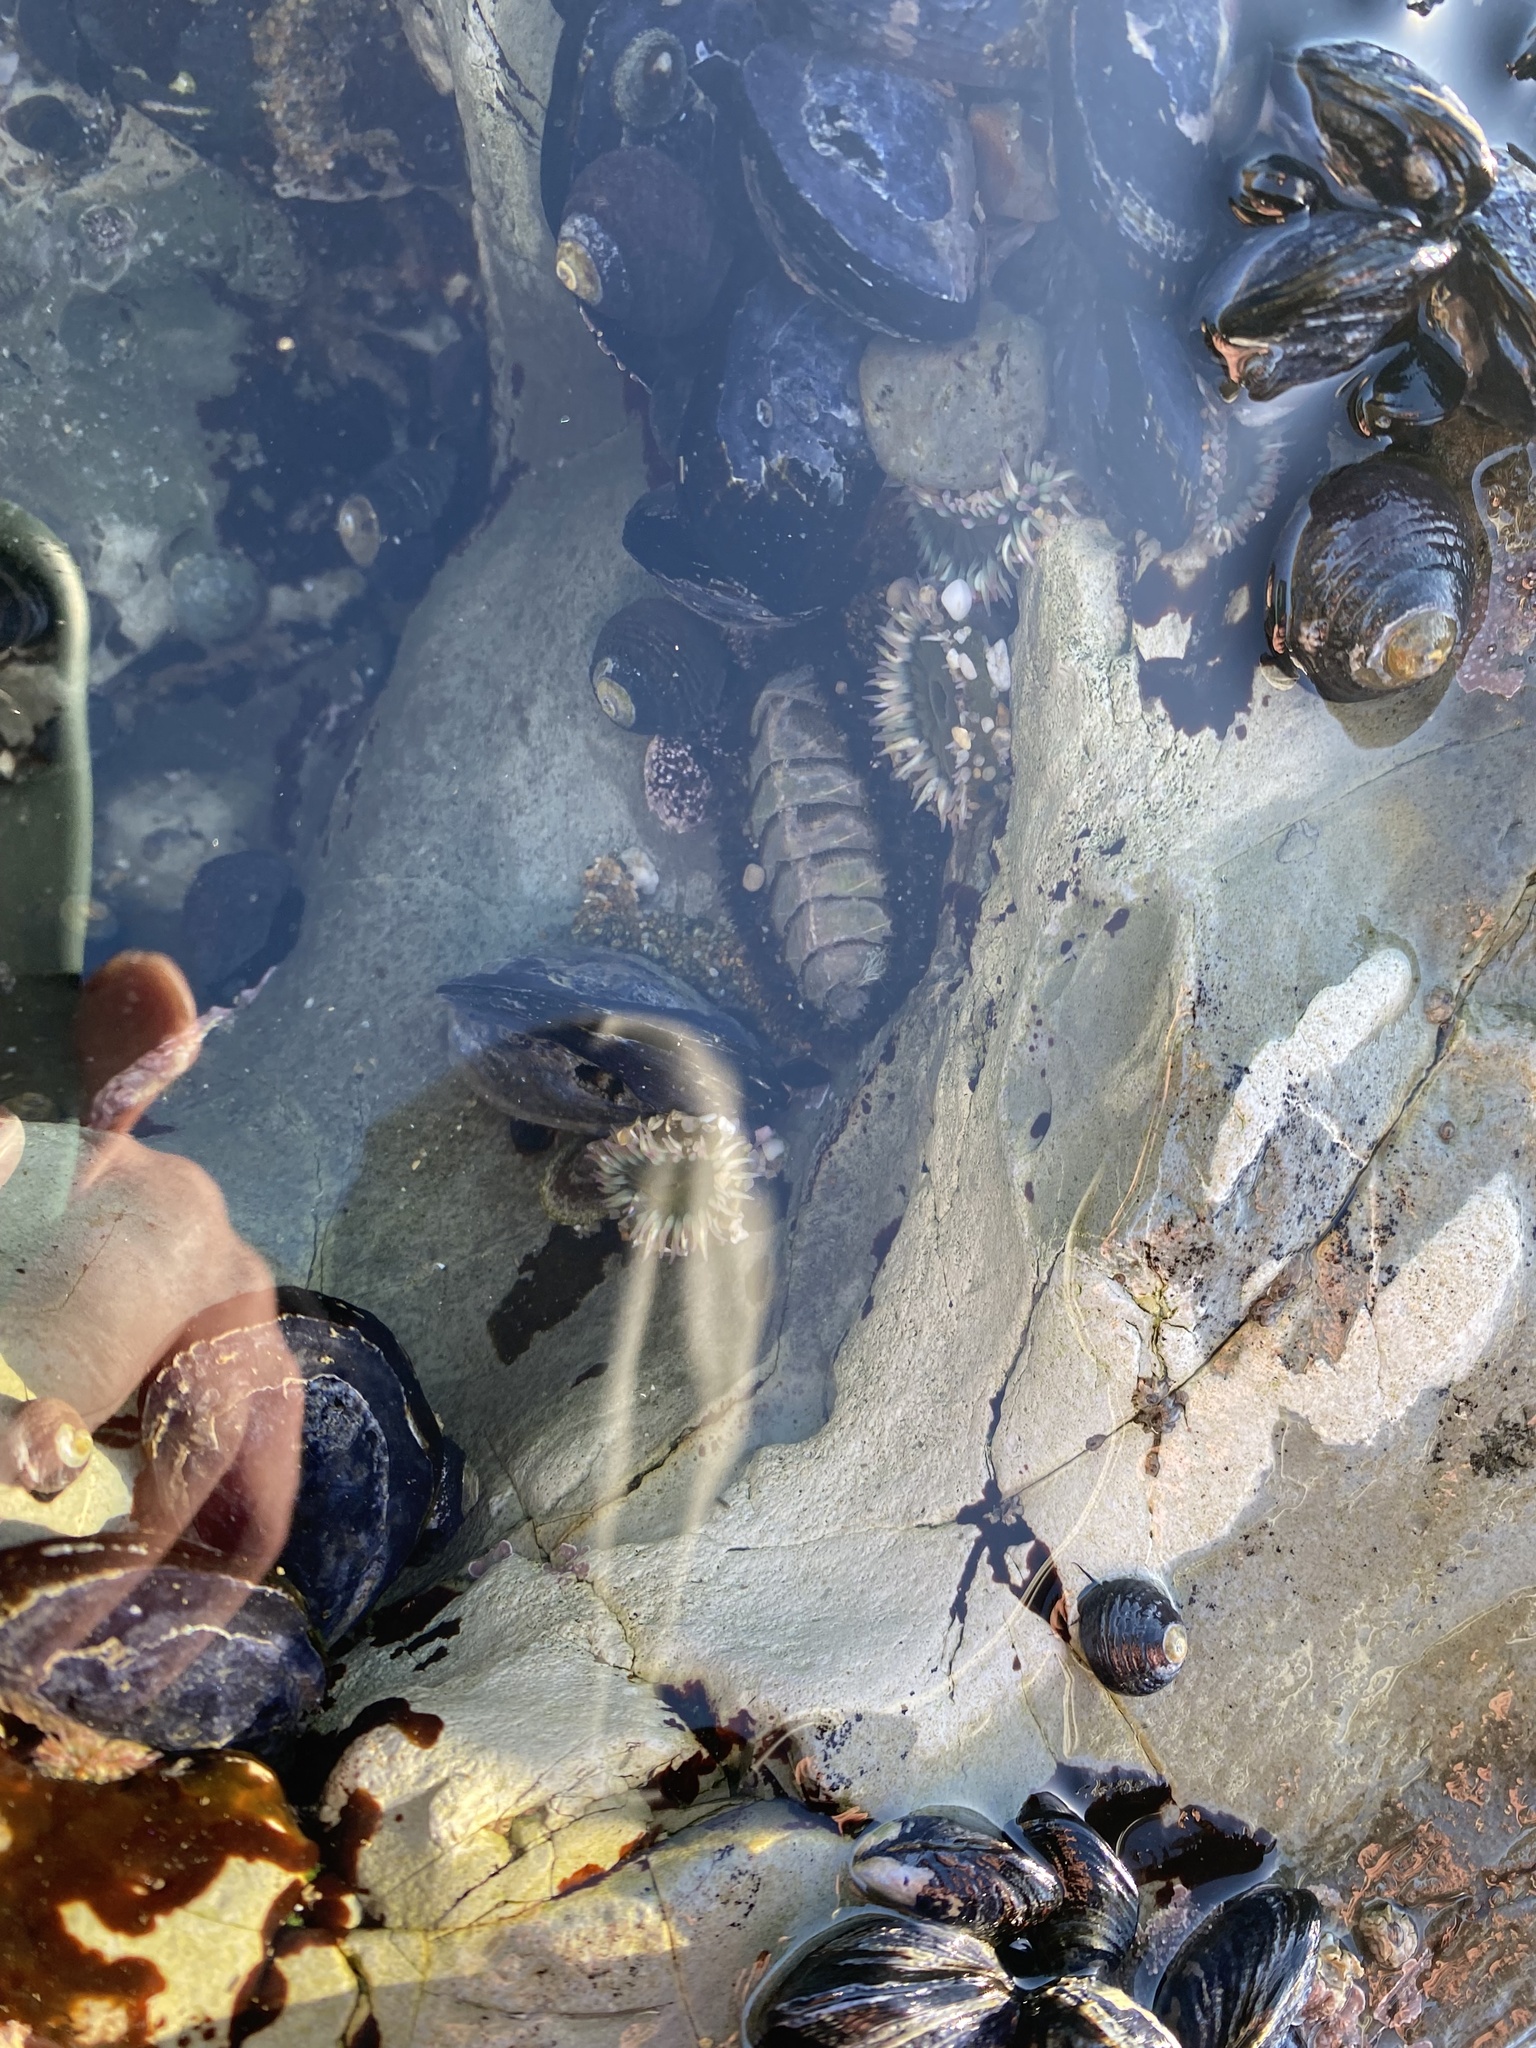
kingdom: Animalia
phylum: Mollusca
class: Polyplacophora
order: Chitonida
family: Mopaliidae
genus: Mopalia
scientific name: Mopalia muscosa
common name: Mossy chiton
